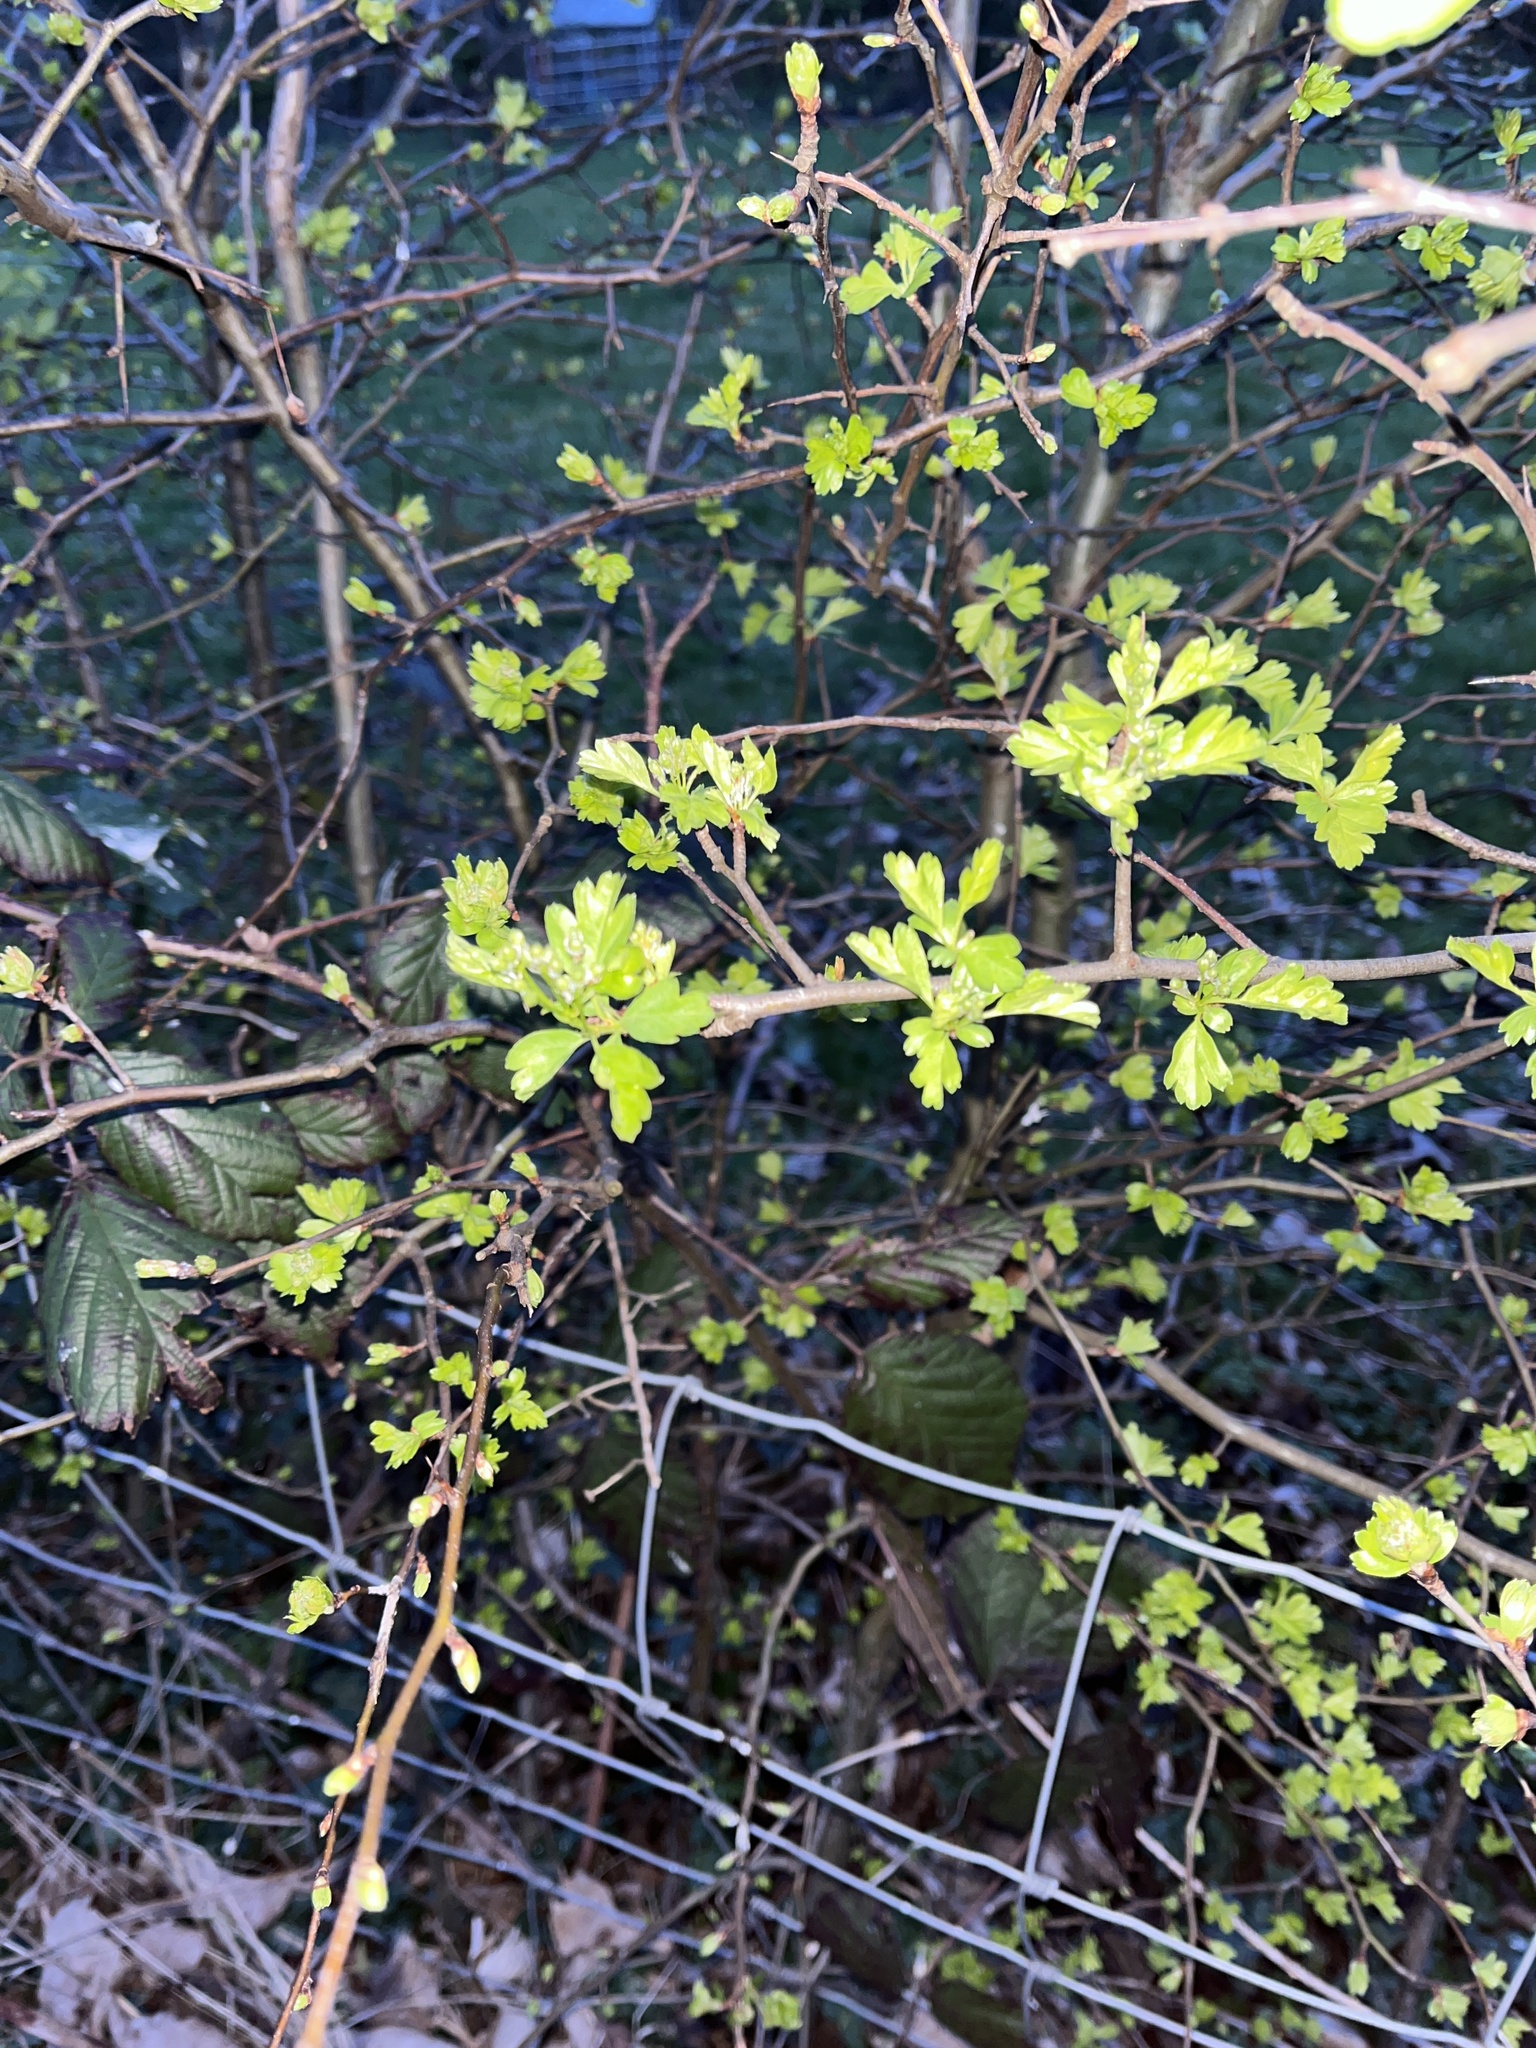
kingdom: Plantae
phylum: Tracheophyta
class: Magnoliopsida
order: Rosales
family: Rosaceae
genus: Crataegus
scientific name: Crataegus monogyna
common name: Hawthorn
